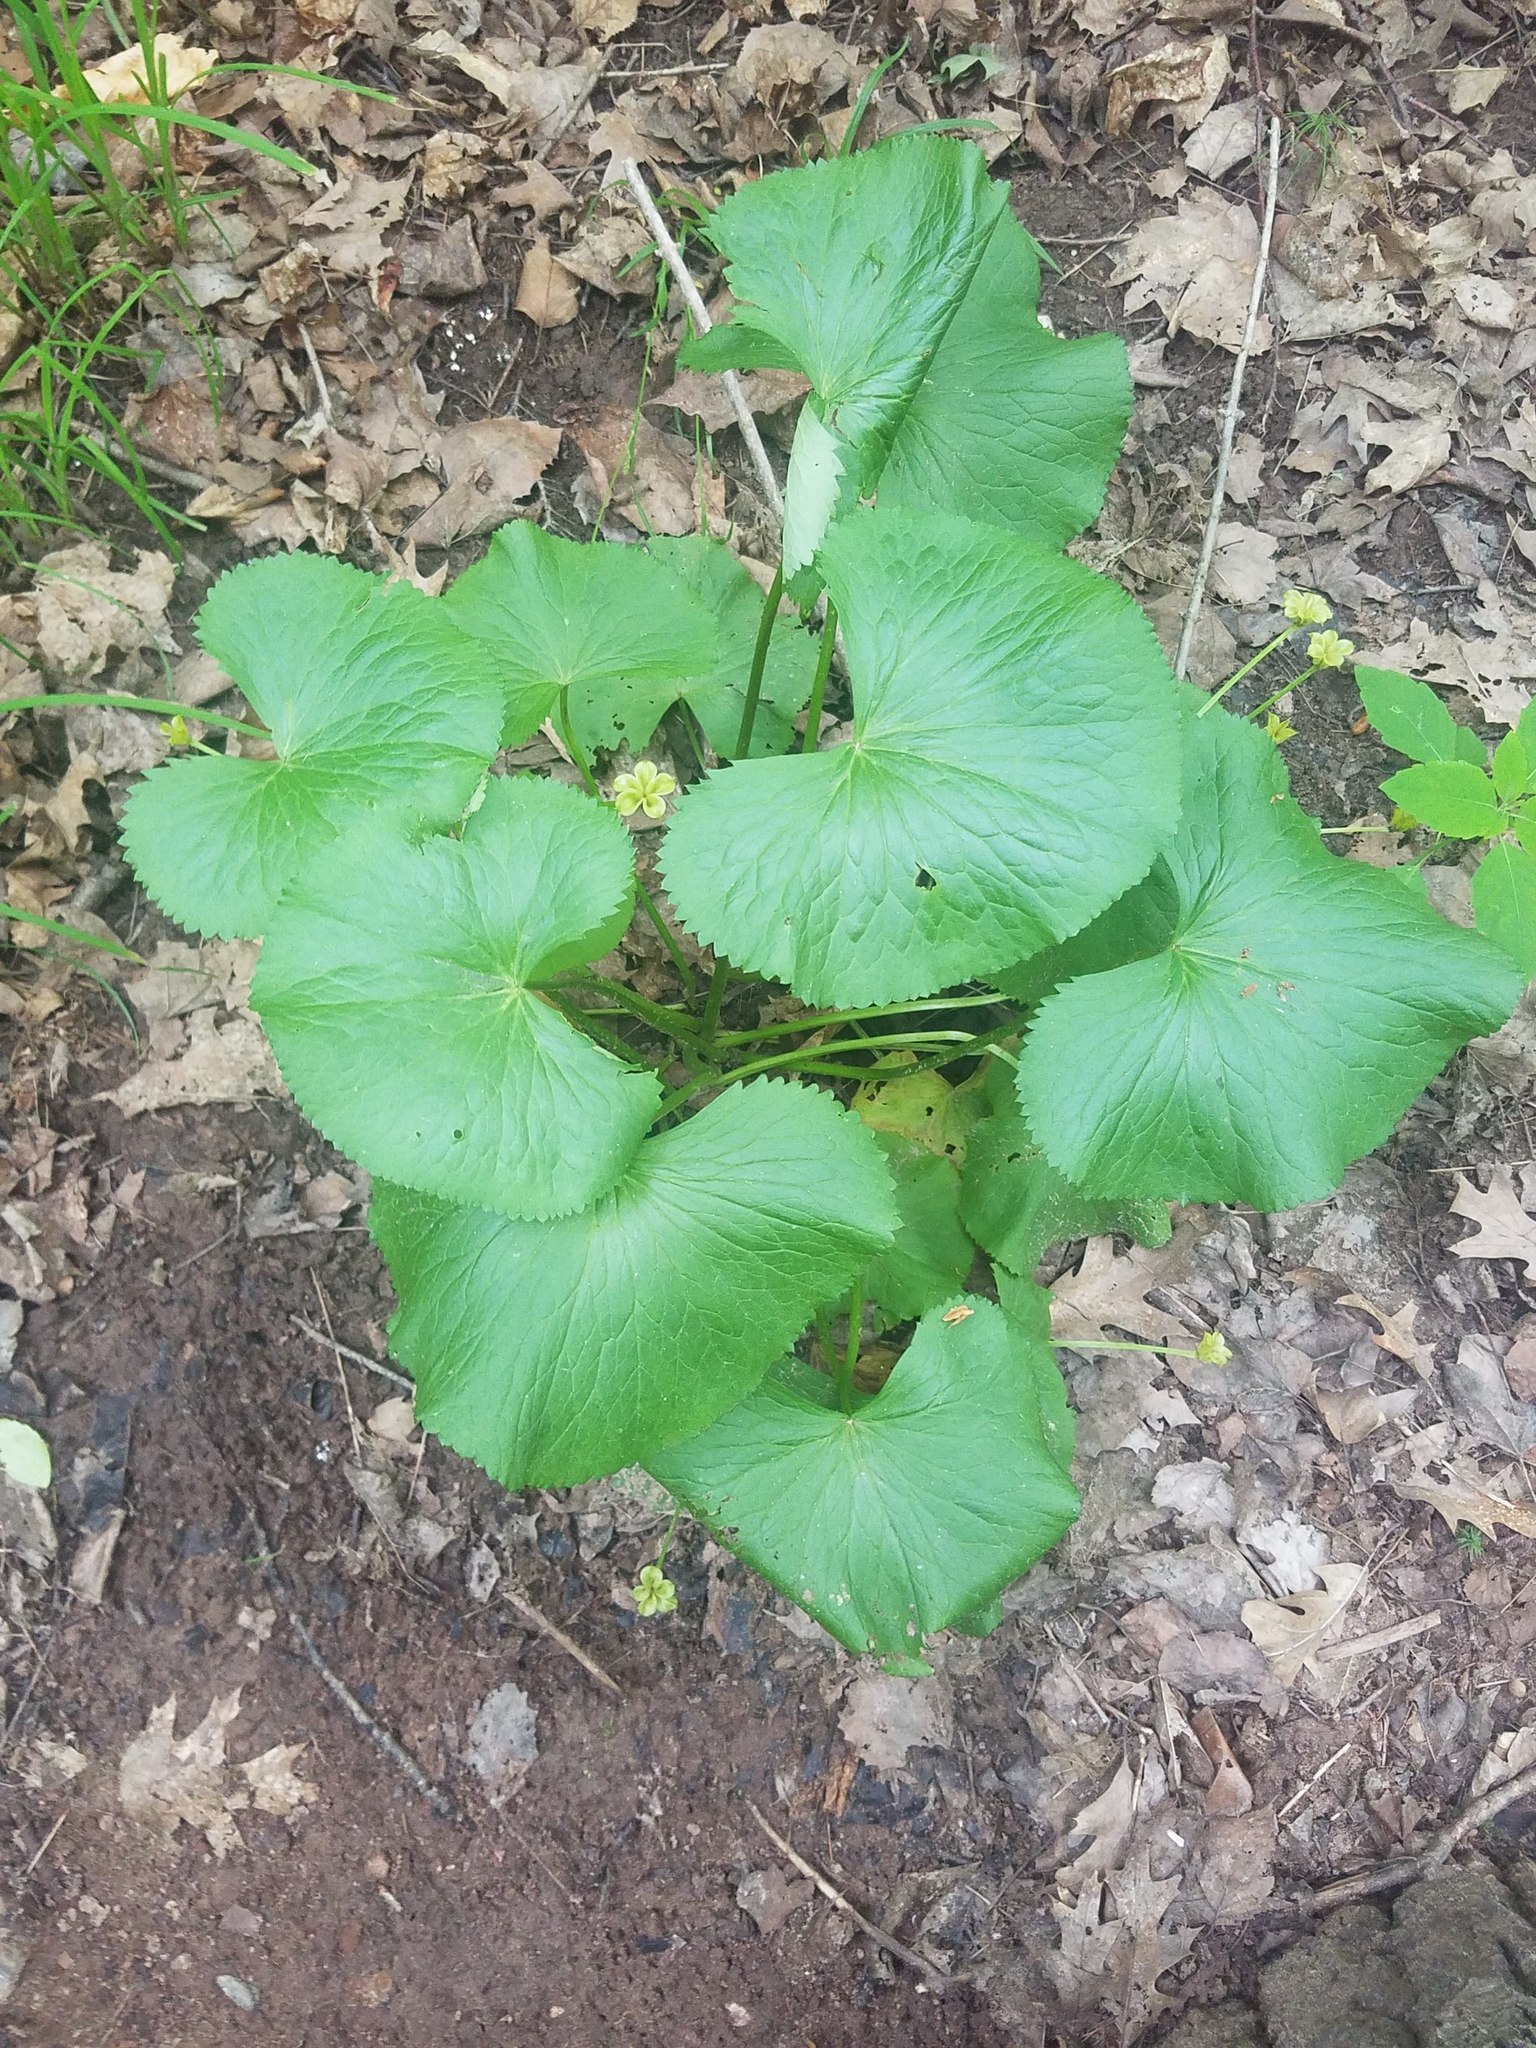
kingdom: Plantae
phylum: Tracheophyta
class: Magnoliopsida
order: Ranunculales
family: Ranunculaceae
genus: Caltha
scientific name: Caltha palustris
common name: Marsh marigold
